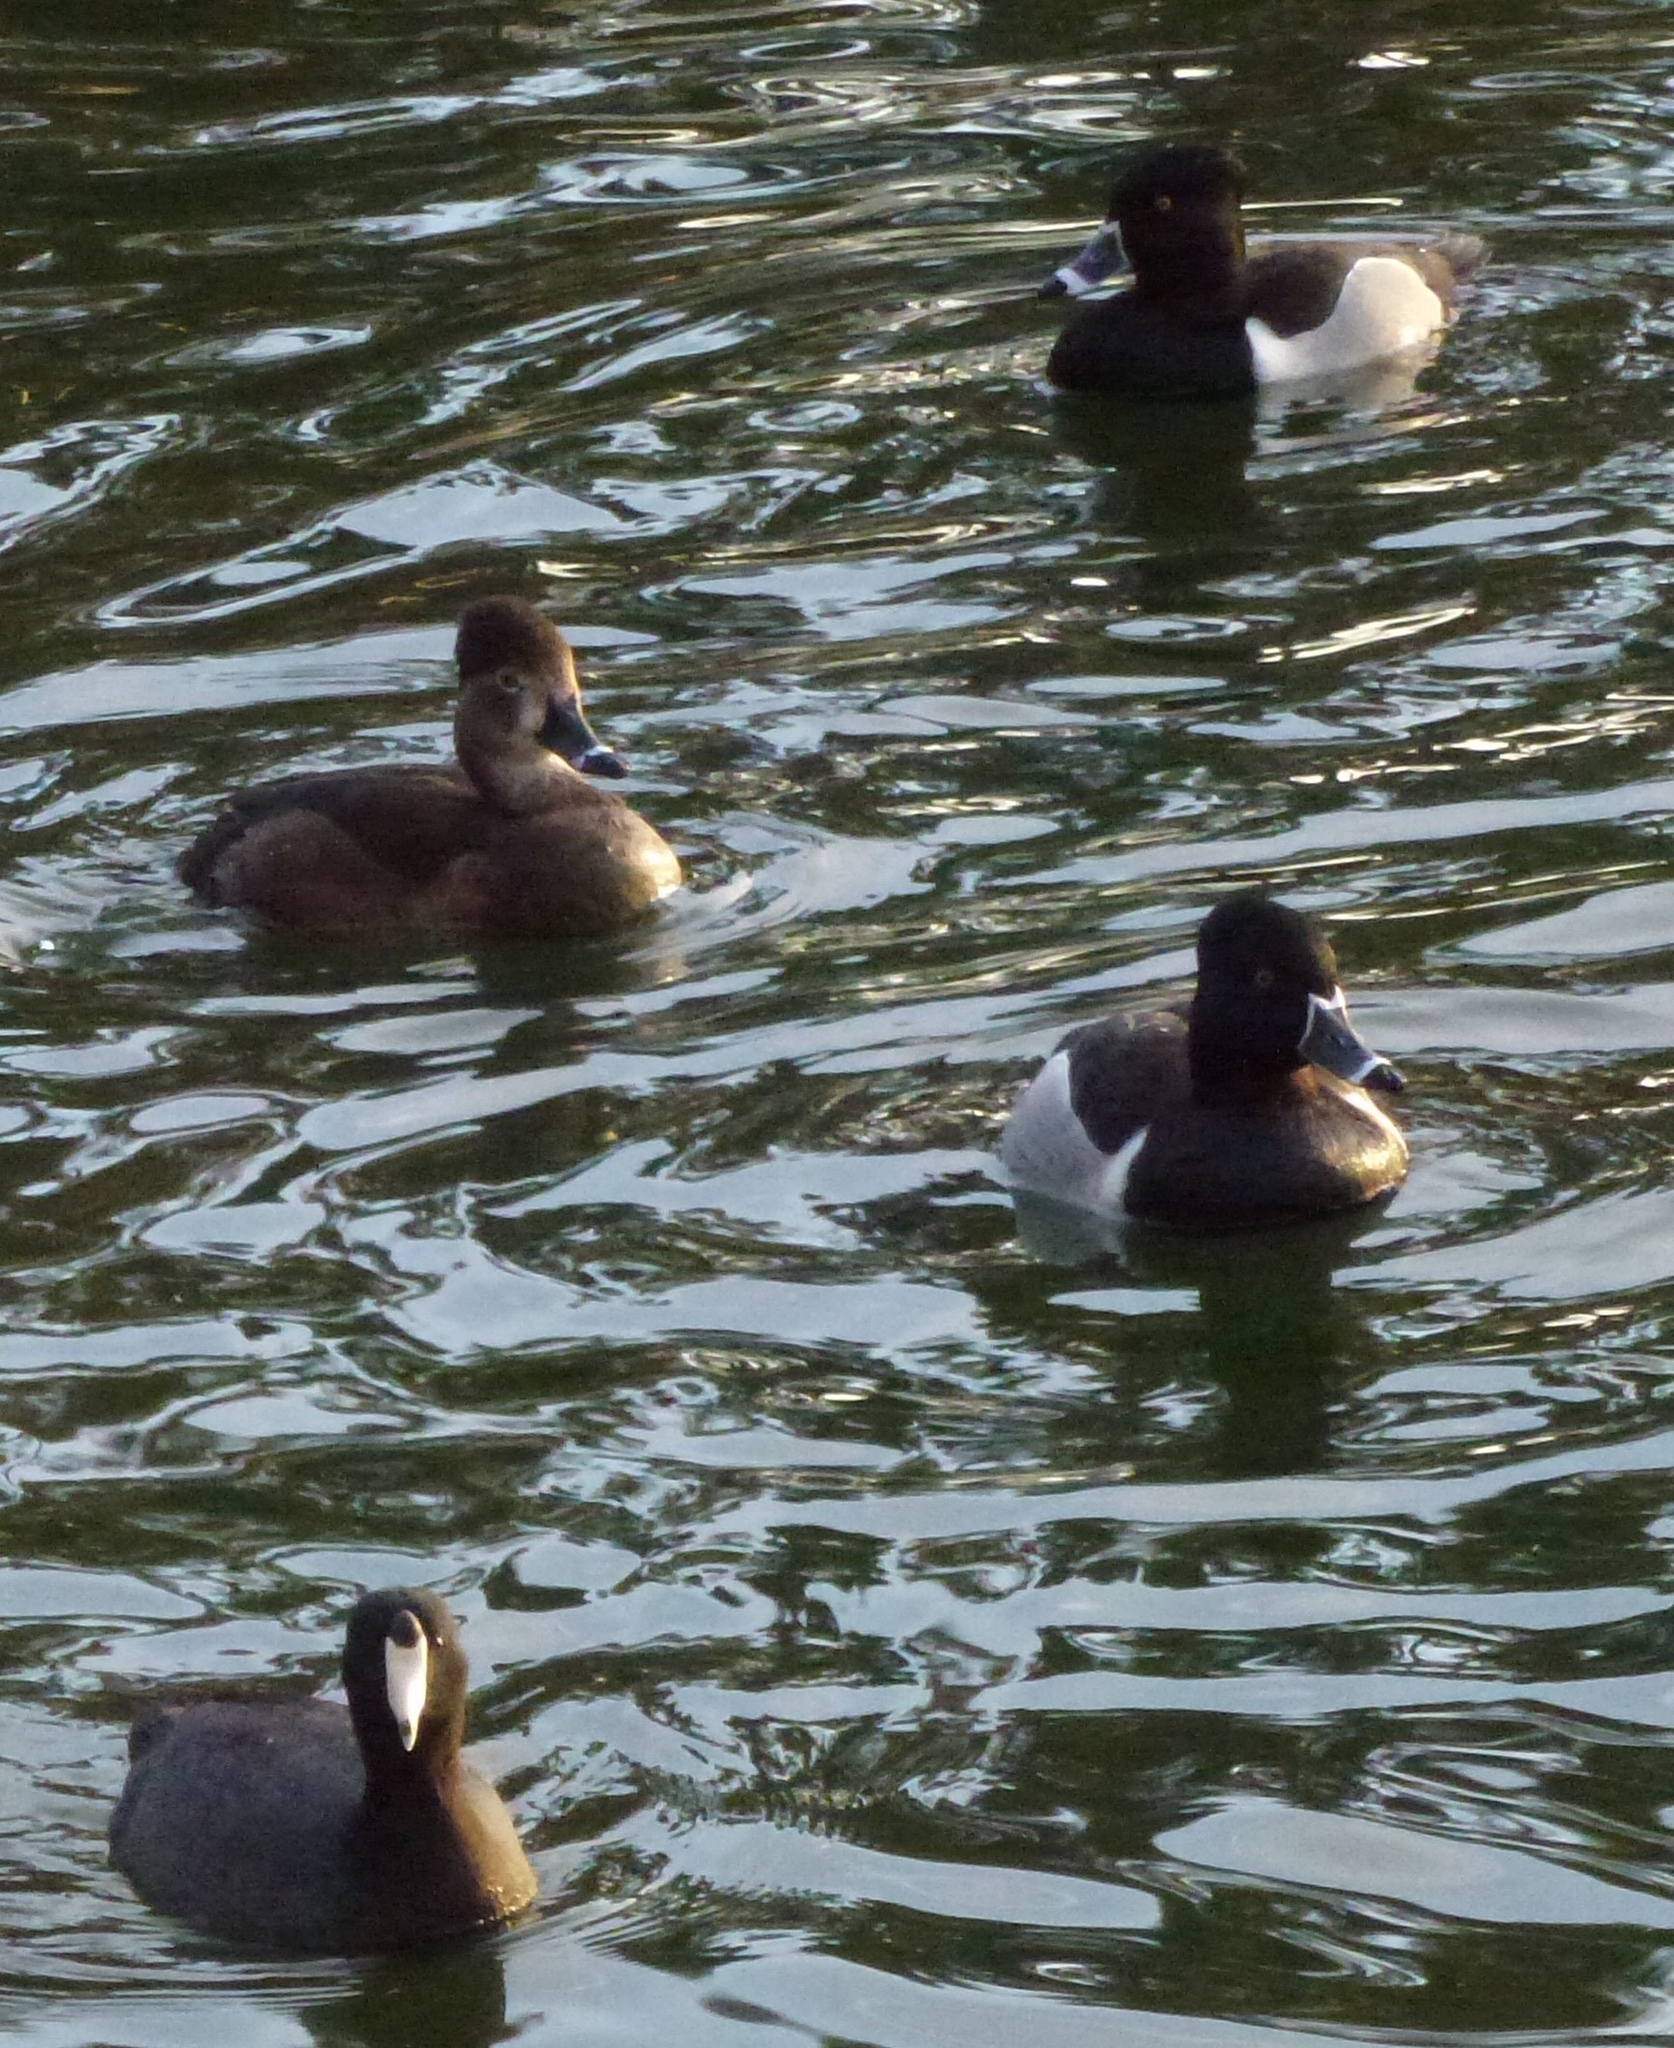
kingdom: Animalia
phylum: Chordata
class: Aves
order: Anseriformes
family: Anatidae
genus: Aythya
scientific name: Aythya collaris
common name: Ring-necked duck
